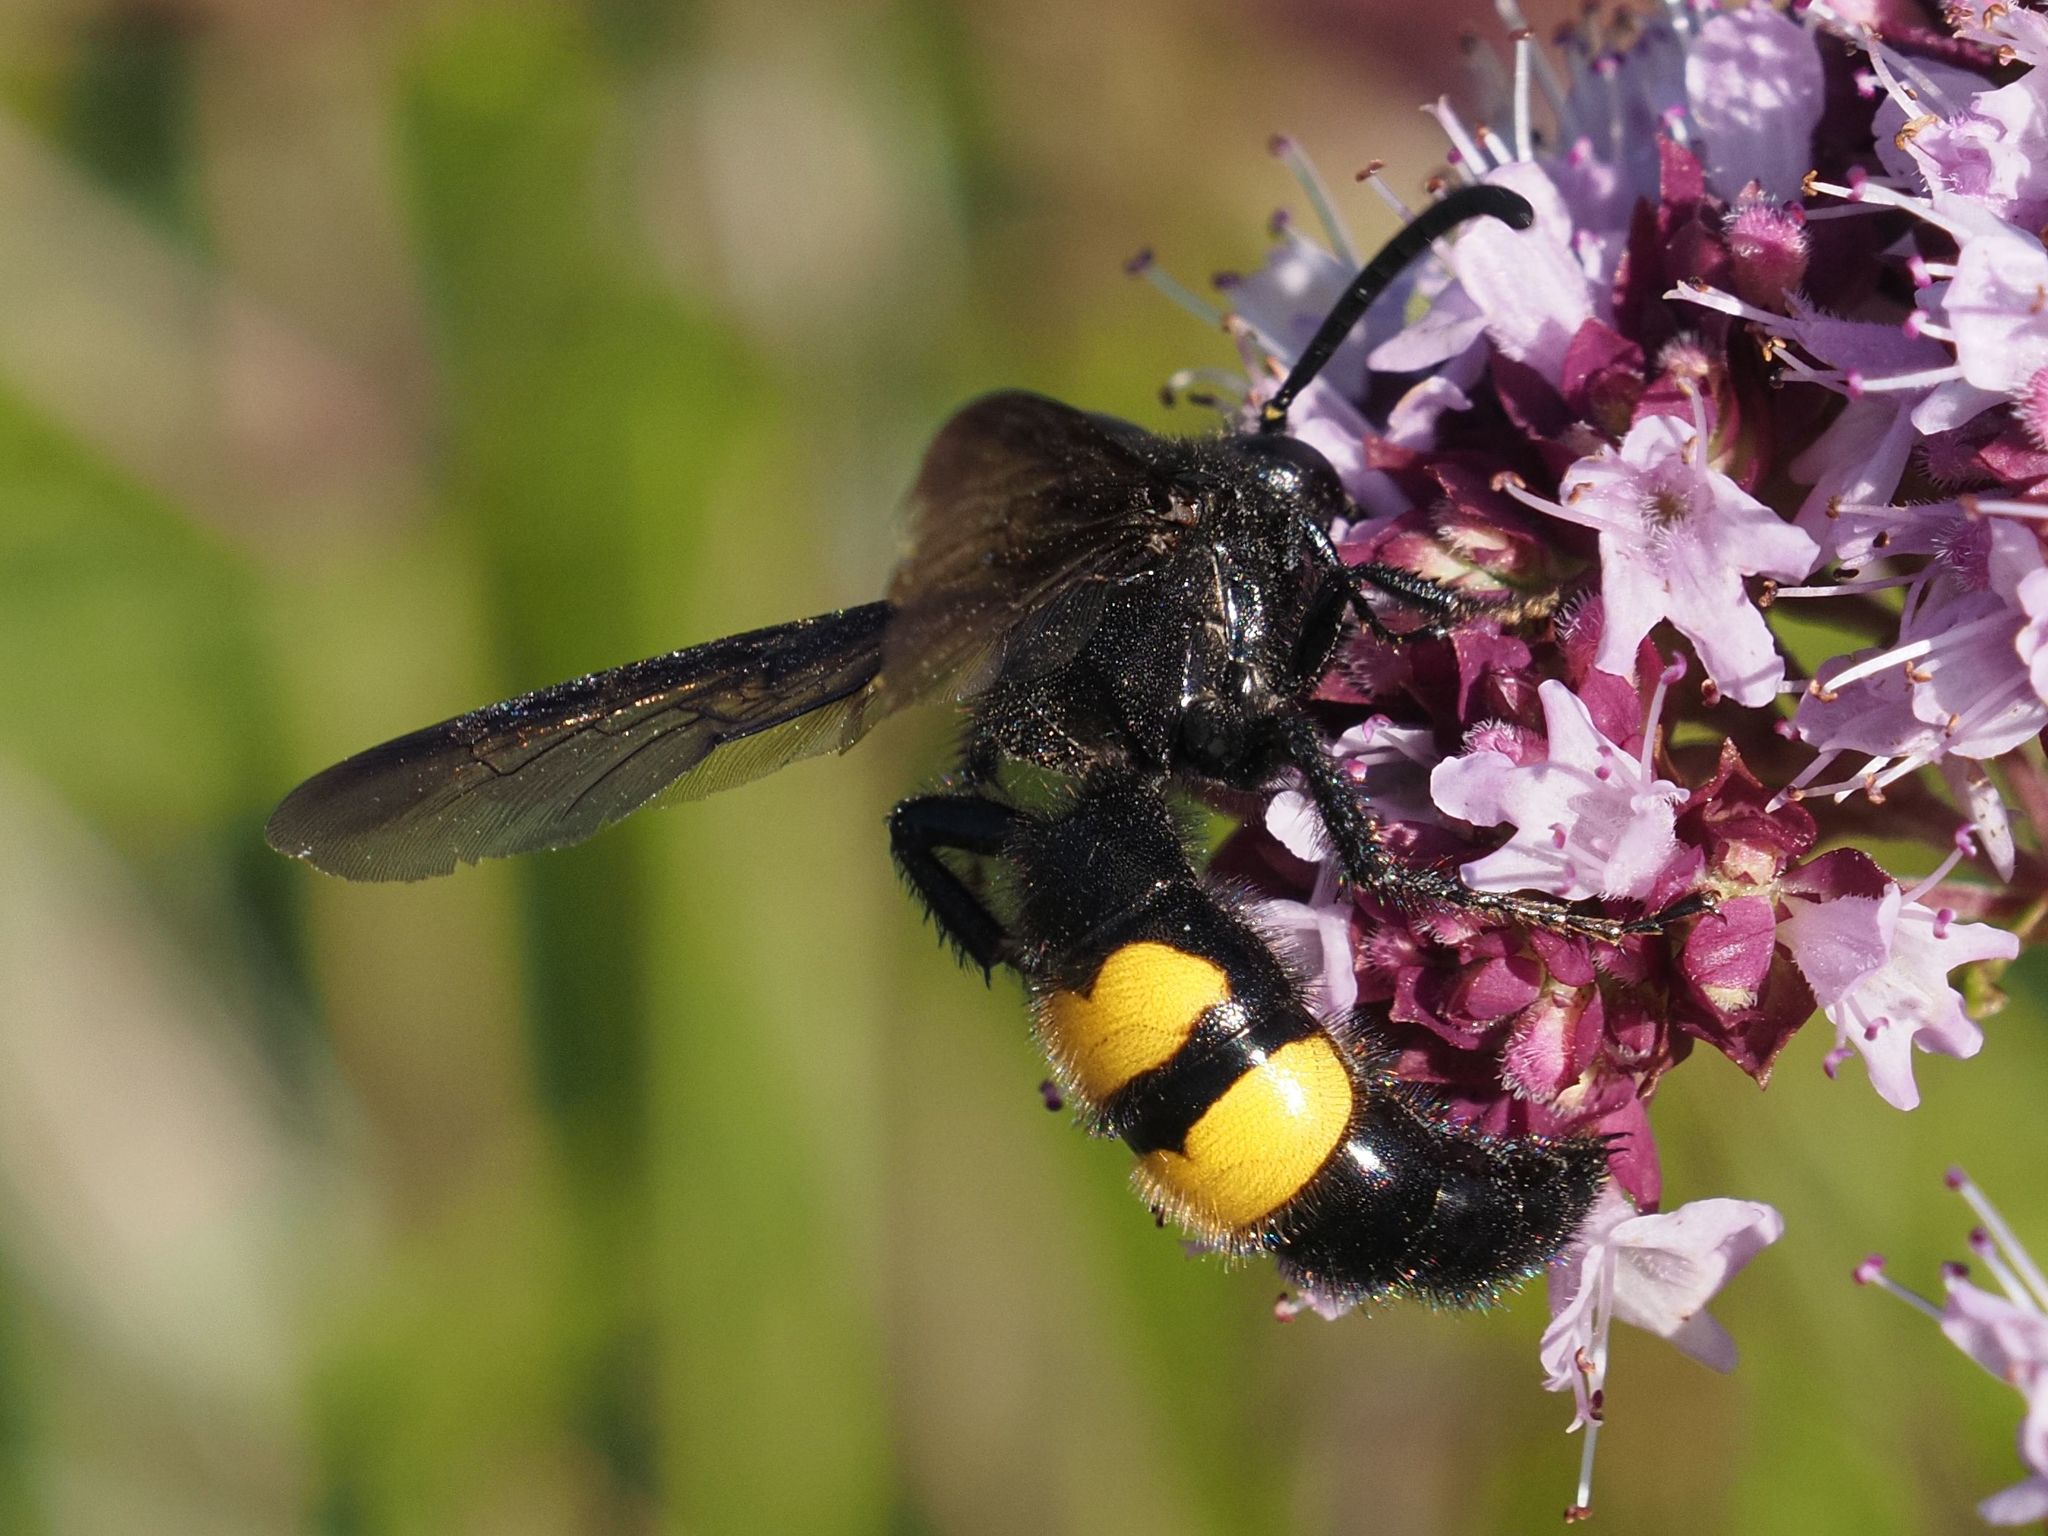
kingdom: Animalia
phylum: Arthropoda
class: Insecta
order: Hymenoptera
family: Scoliidae
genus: Scolia
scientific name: Scolia hirta
